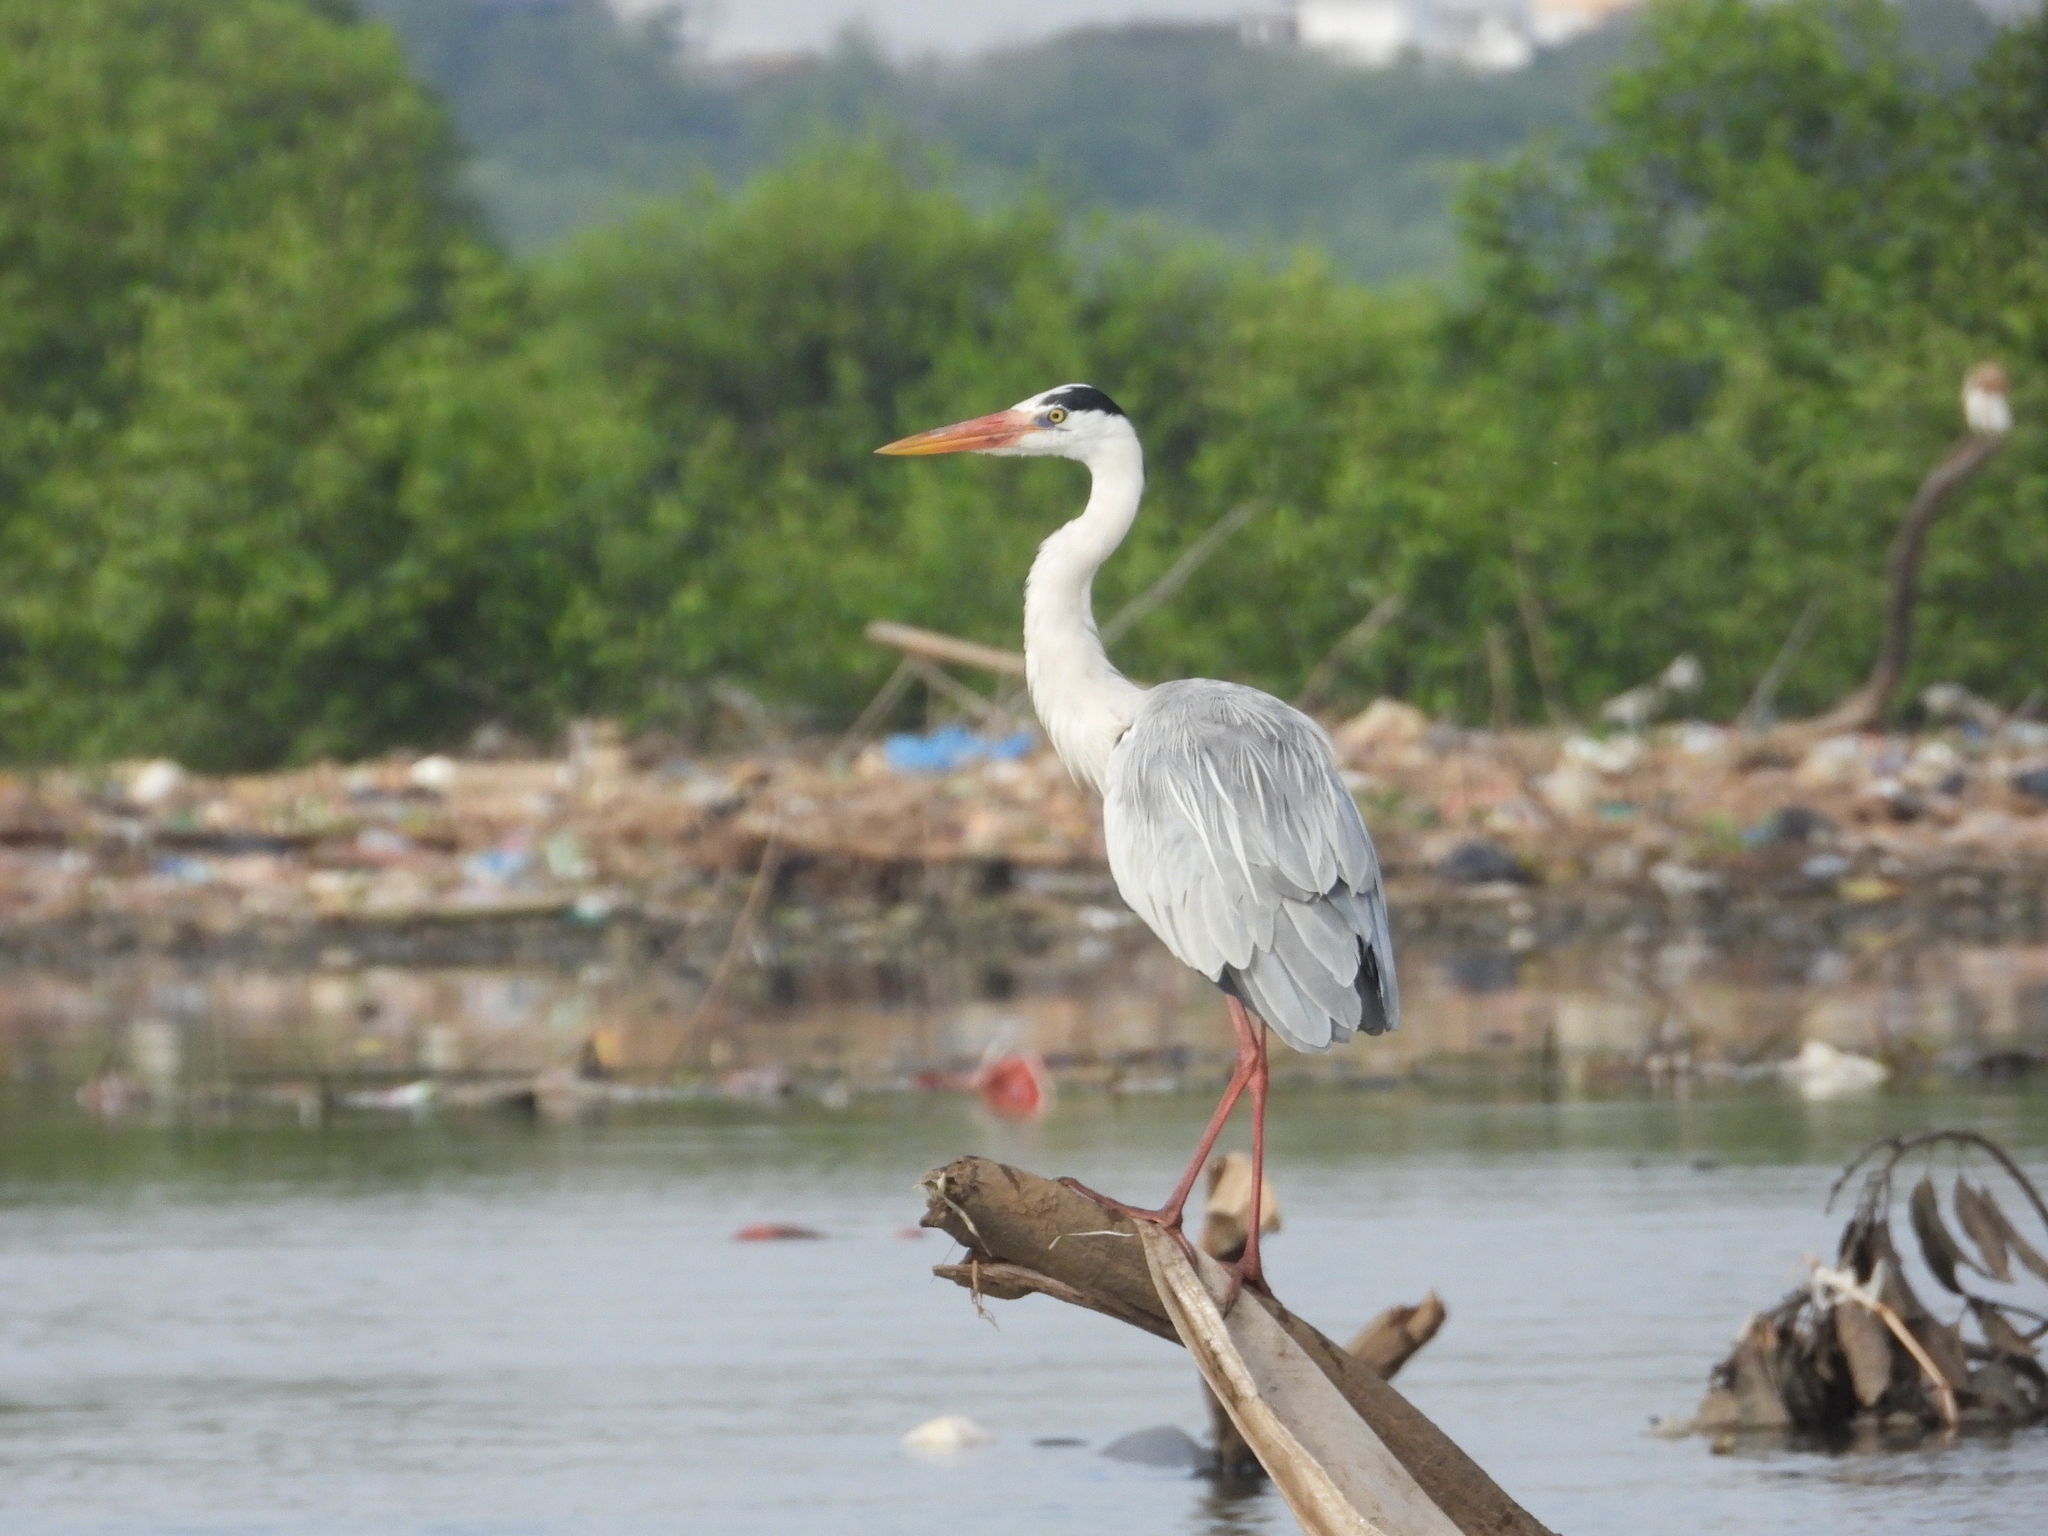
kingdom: Animalia
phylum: Chordata
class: Aves
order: Pelecaniformes
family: Ardeidae
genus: Ardea
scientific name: Ardea cinerea
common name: Grey heron
